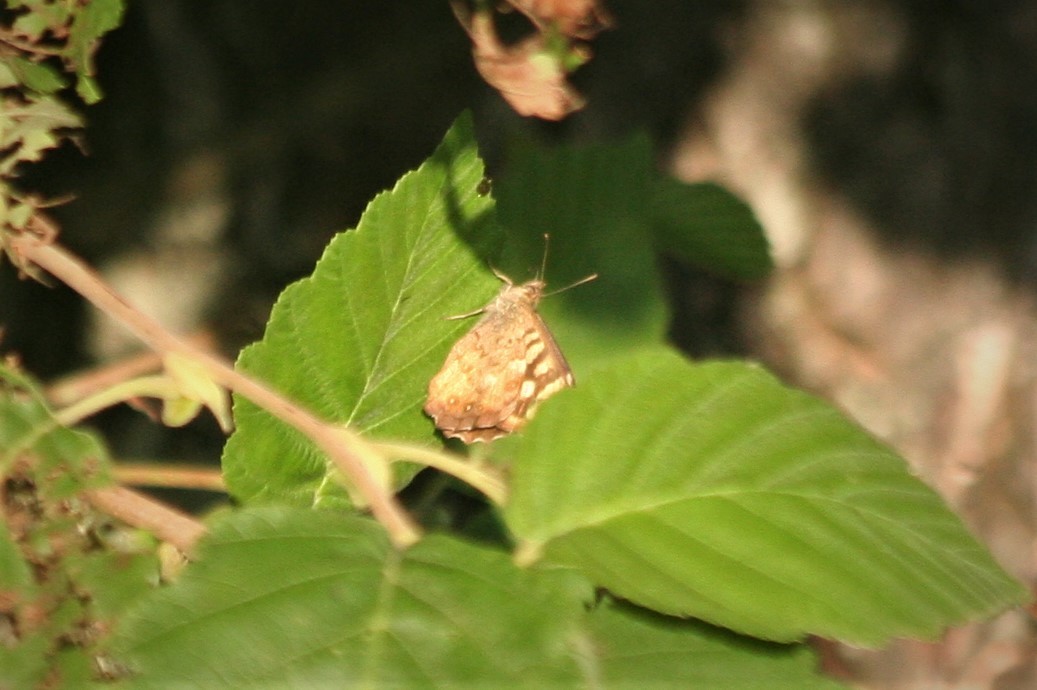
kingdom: Animalia
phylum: Arthropoda
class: Insecta
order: Lepidoptera
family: Nymphalidae
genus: Pararge
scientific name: Pararge aegeria
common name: Speckled wood
